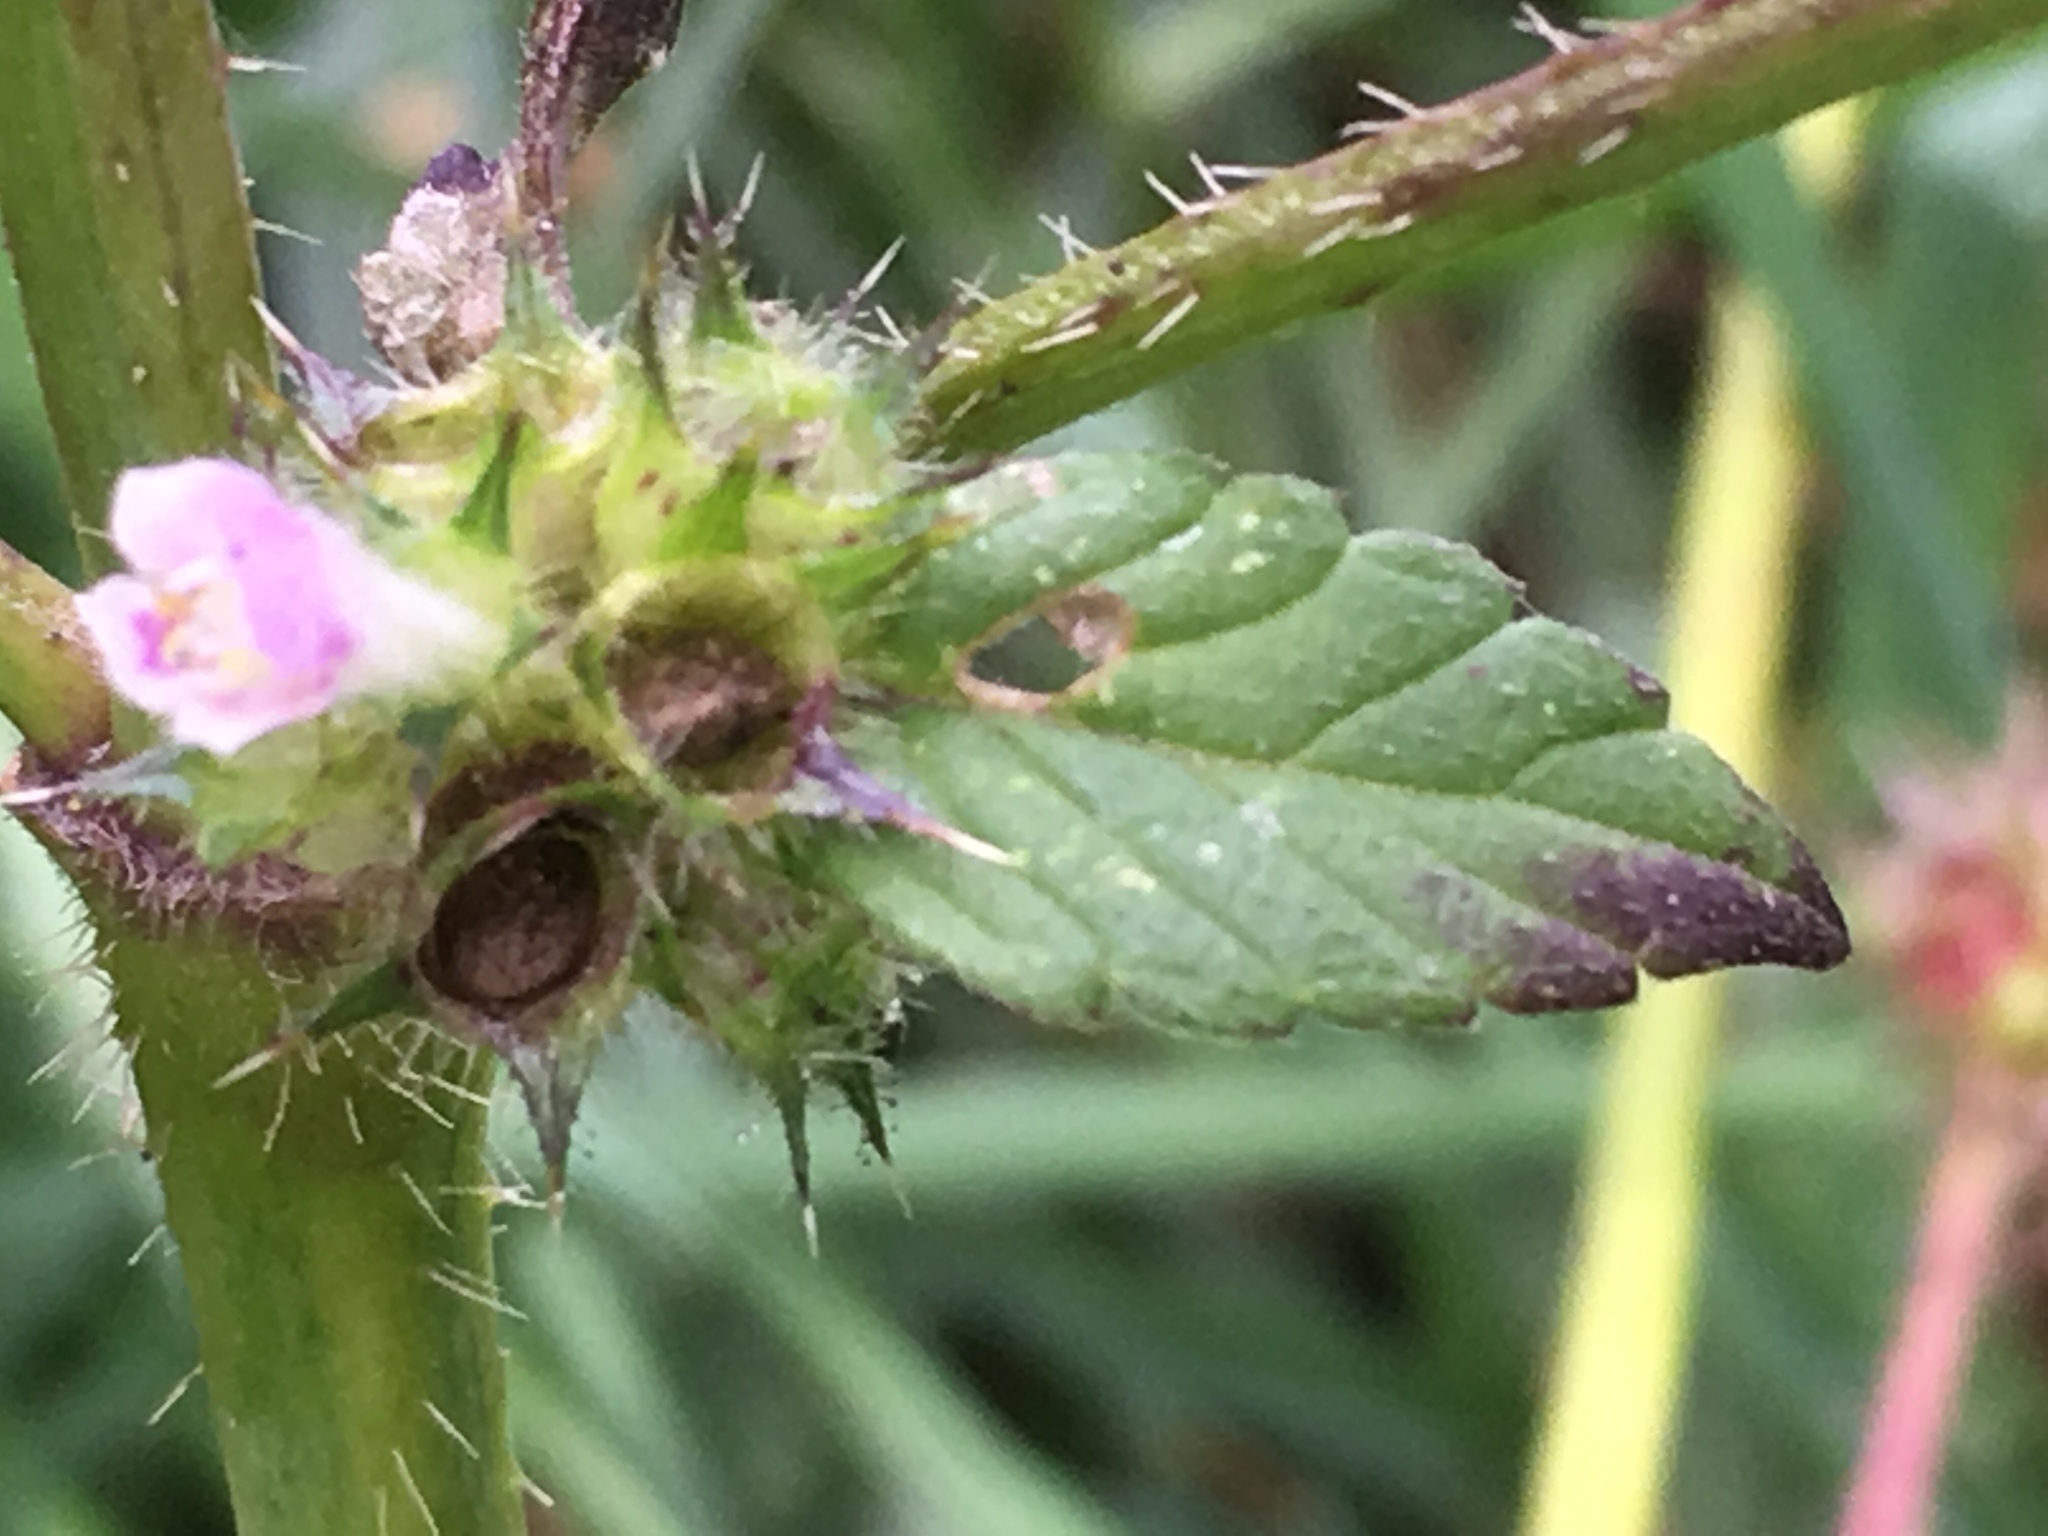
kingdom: Plantae
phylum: Tracheophyta
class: Magnoliopsida
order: Lamiales
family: Lamiaceae
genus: Galeopsis
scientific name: Galeopsis tetrahit
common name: Common hemp-nettle
